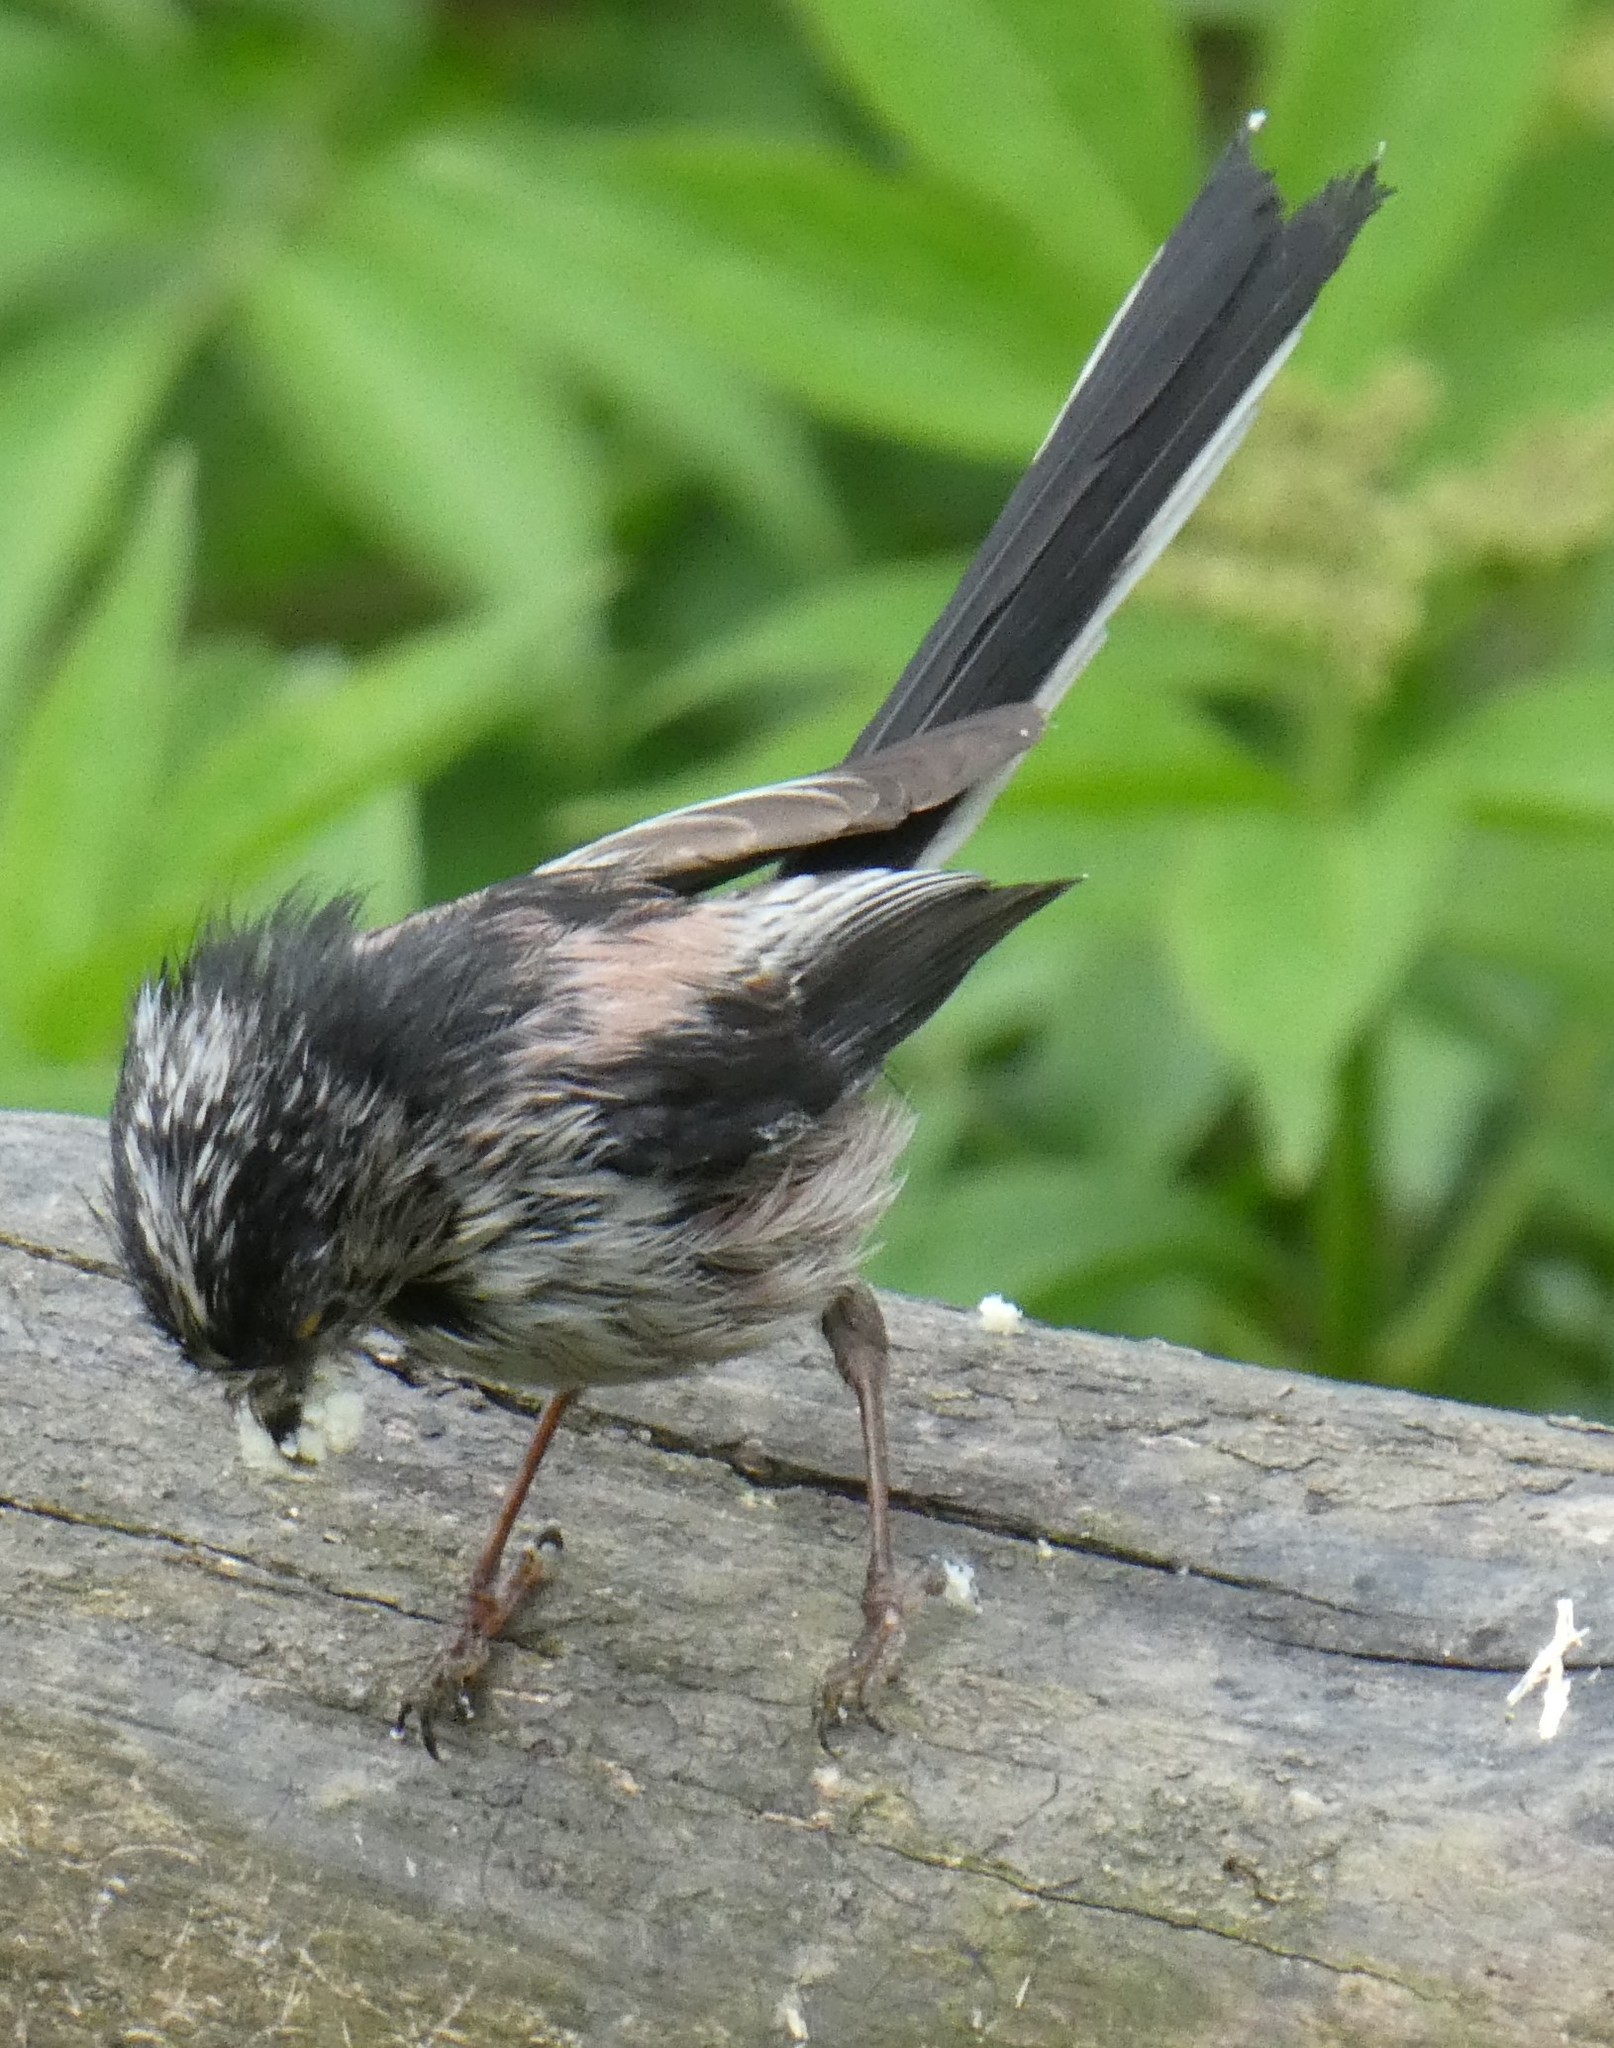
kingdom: Animalia
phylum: Chordata
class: Aves
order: Passeriformes
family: Aegithalidae
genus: Aegithalos
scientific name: Aegithalos caudatus
